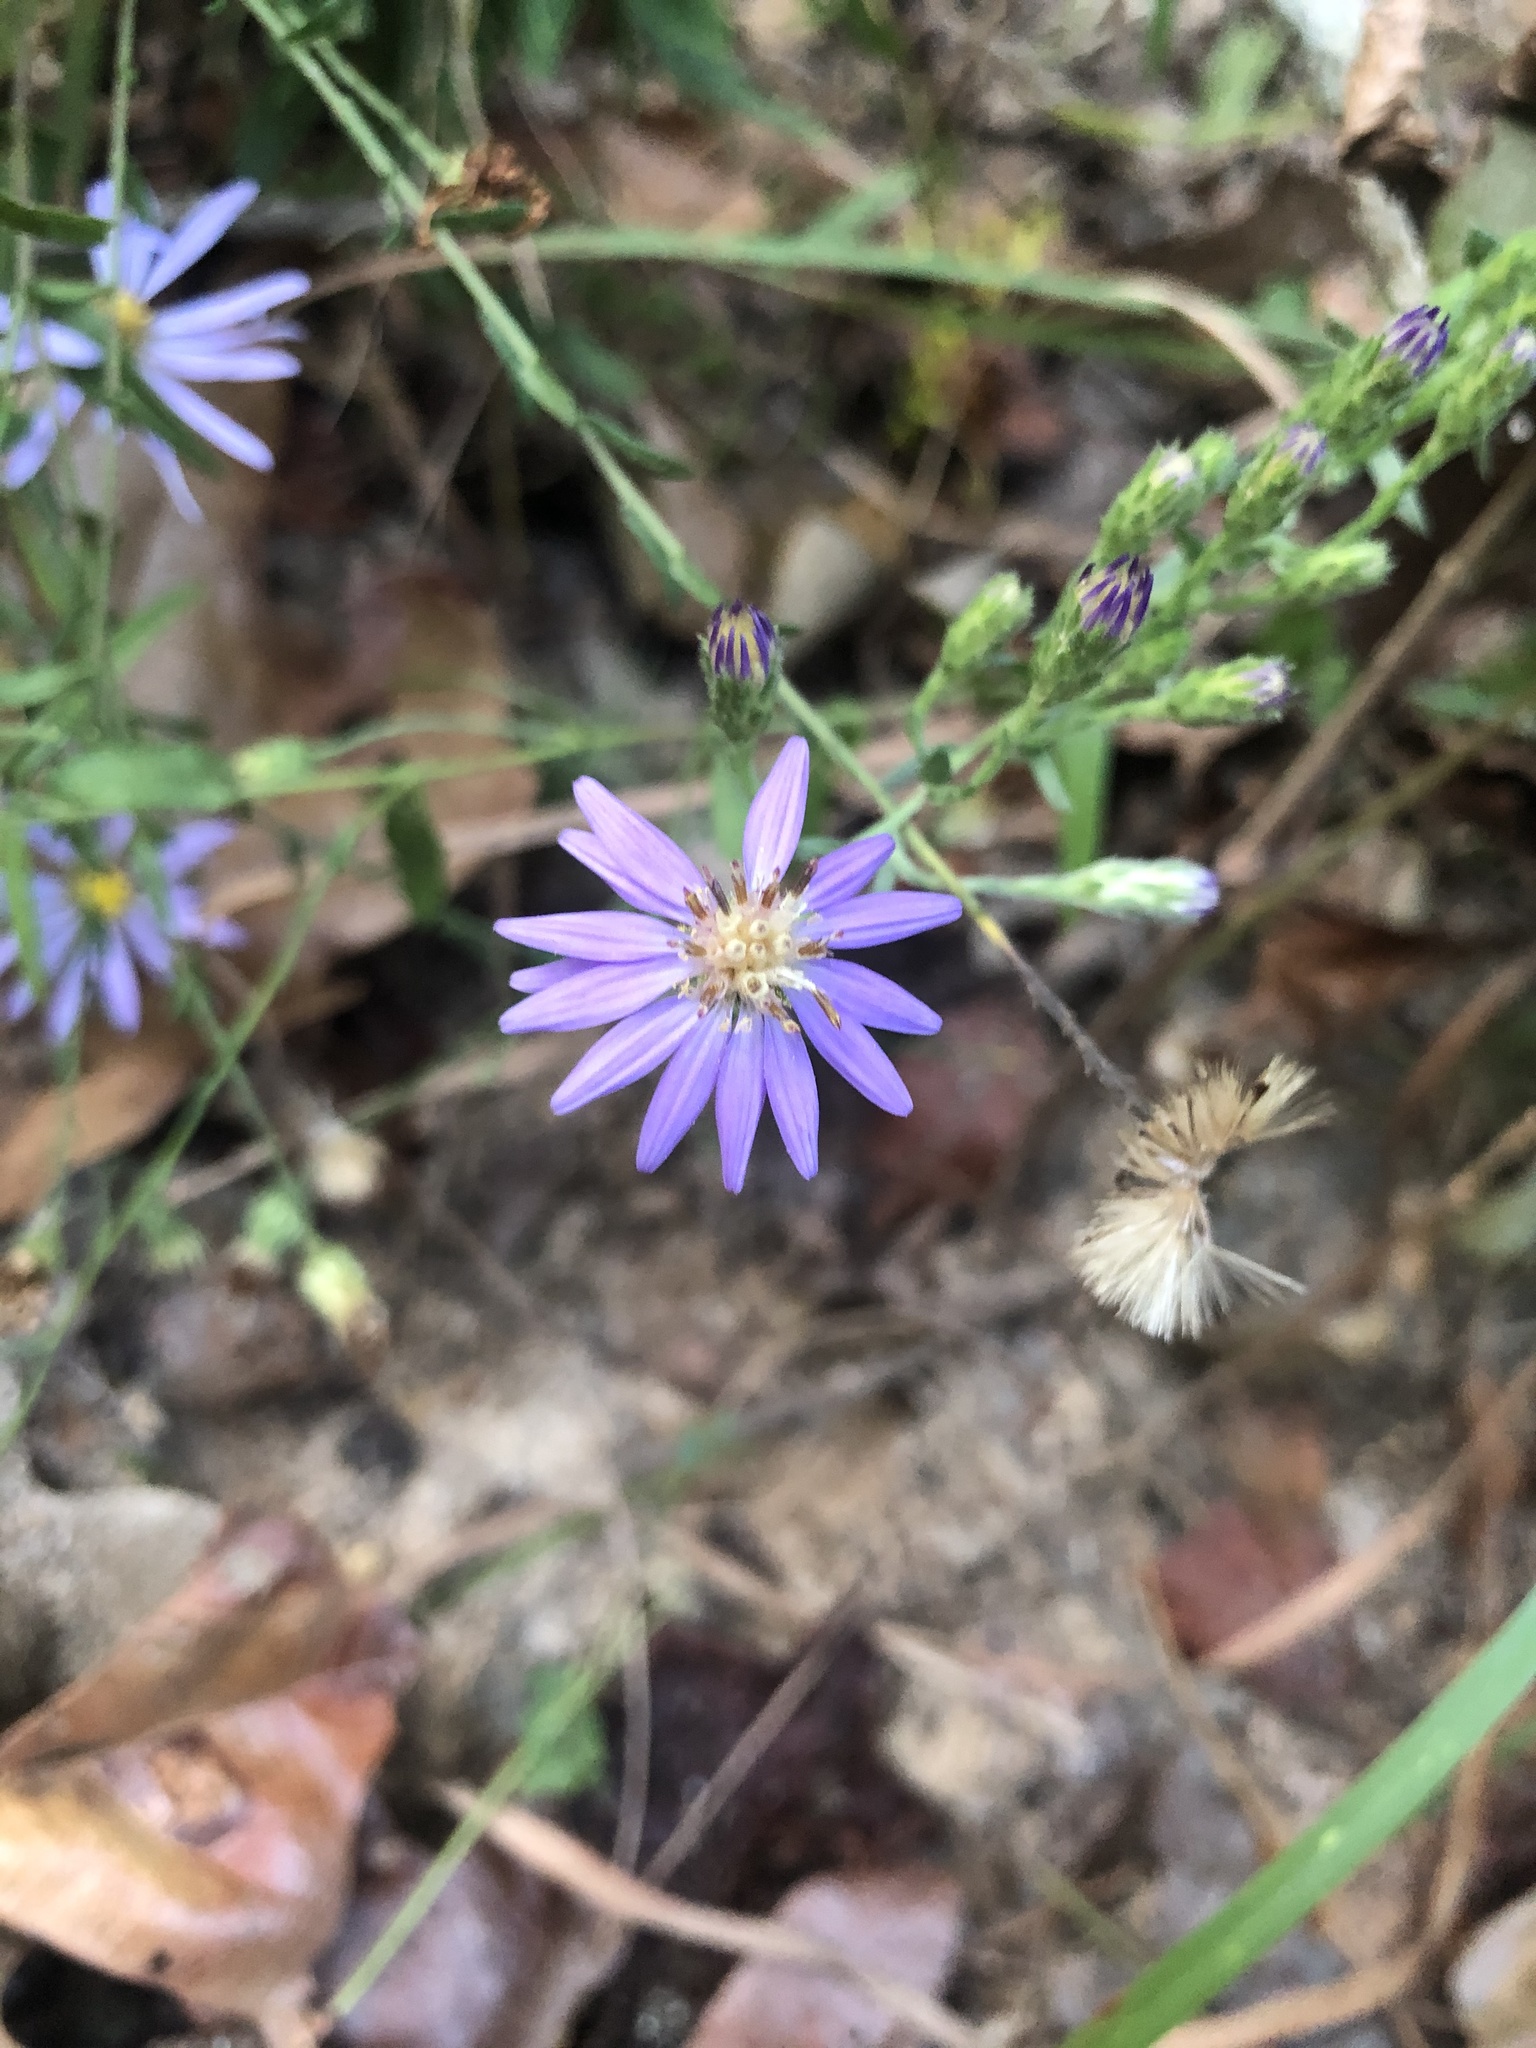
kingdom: Plantae
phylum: Tracheophyta
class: Magnoliopsida
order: Asterales
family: Asteraceae
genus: Symphyotrichum
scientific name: Symphyotrichum concolor
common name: Eastern silver aster
